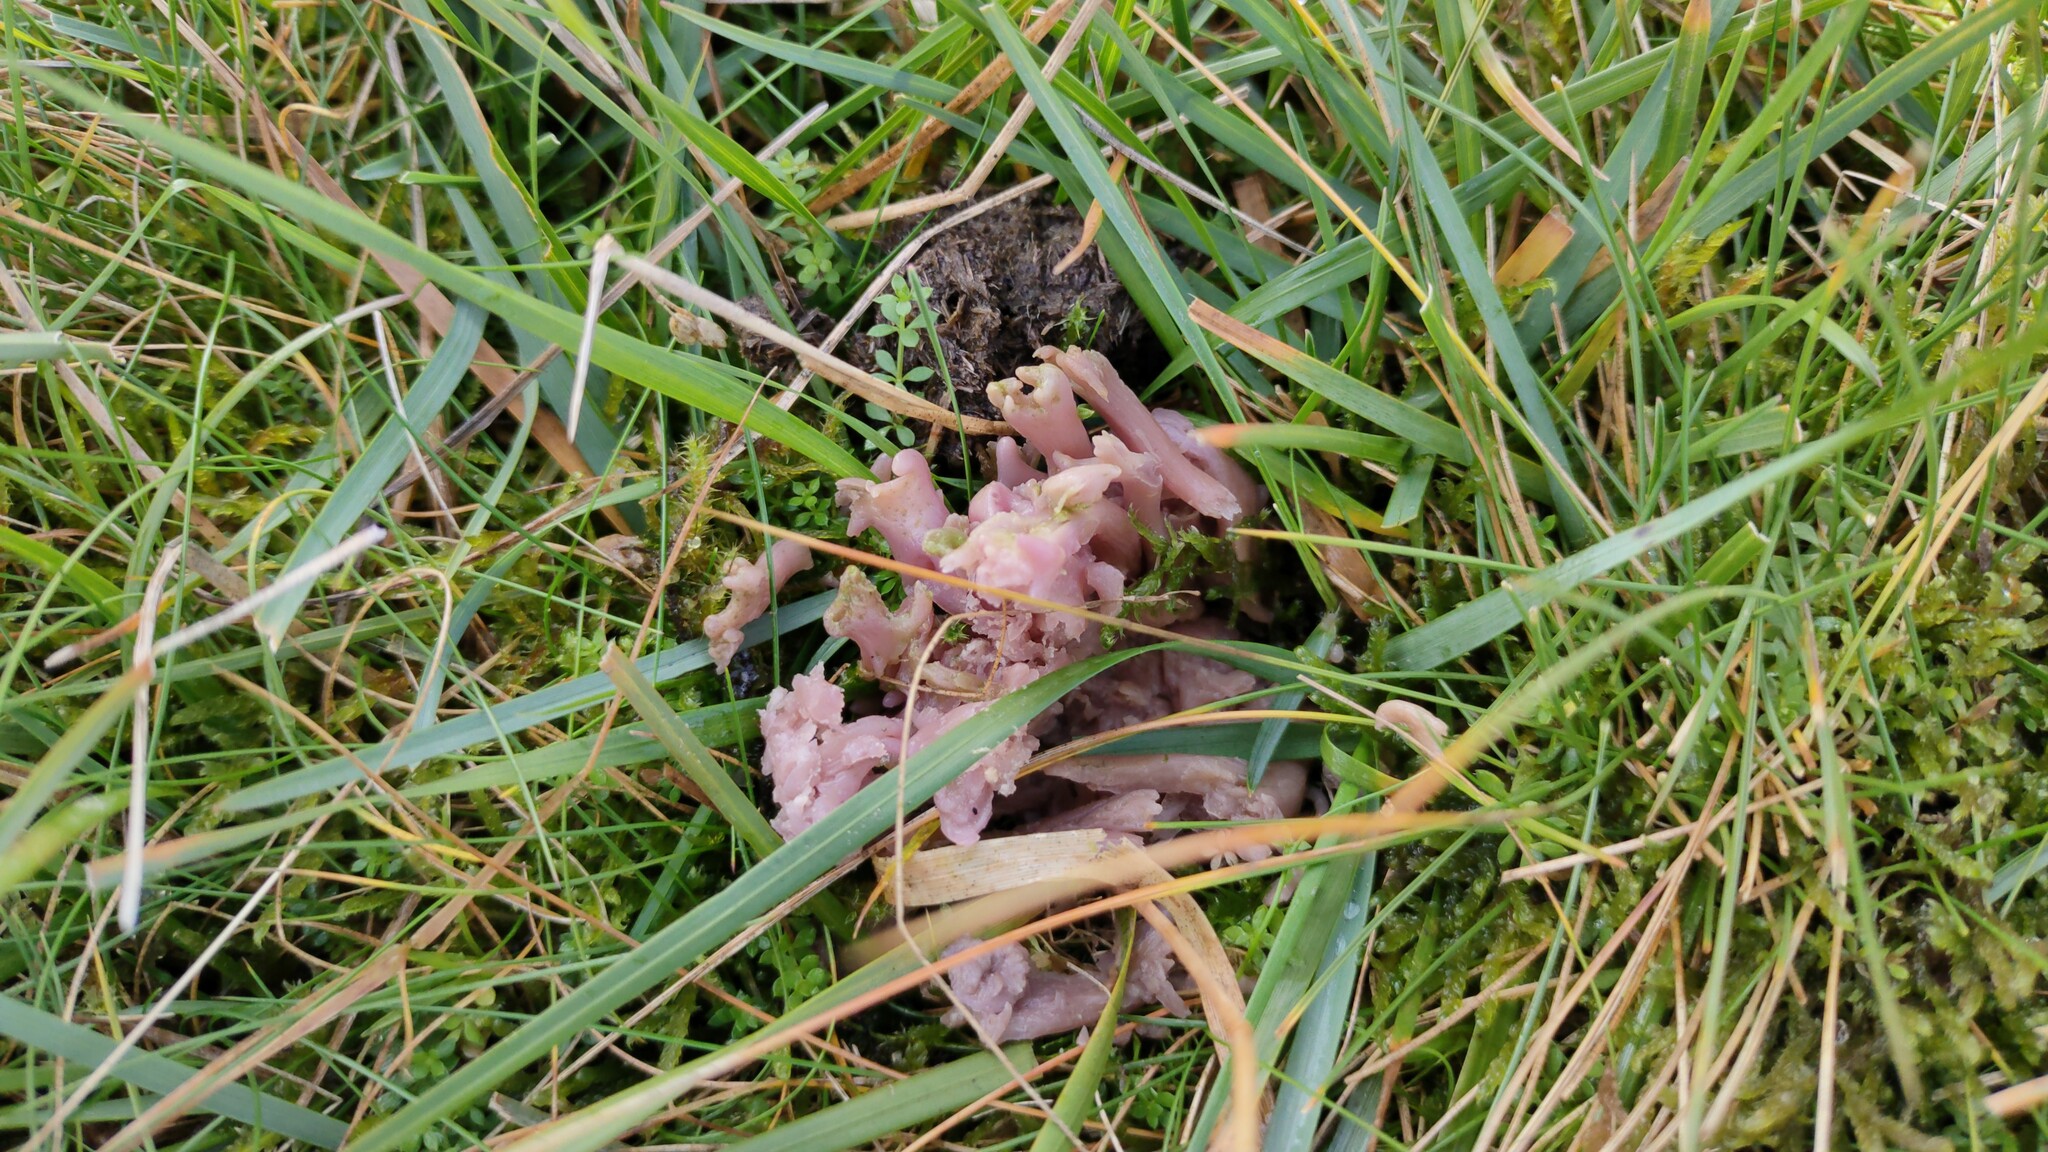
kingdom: Fungi
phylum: Basidiomycota
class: Agaricomycetes
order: Agaricales
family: Clavariaceae
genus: Clavaria
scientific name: Clavaria zollingeri
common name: Violet coral
